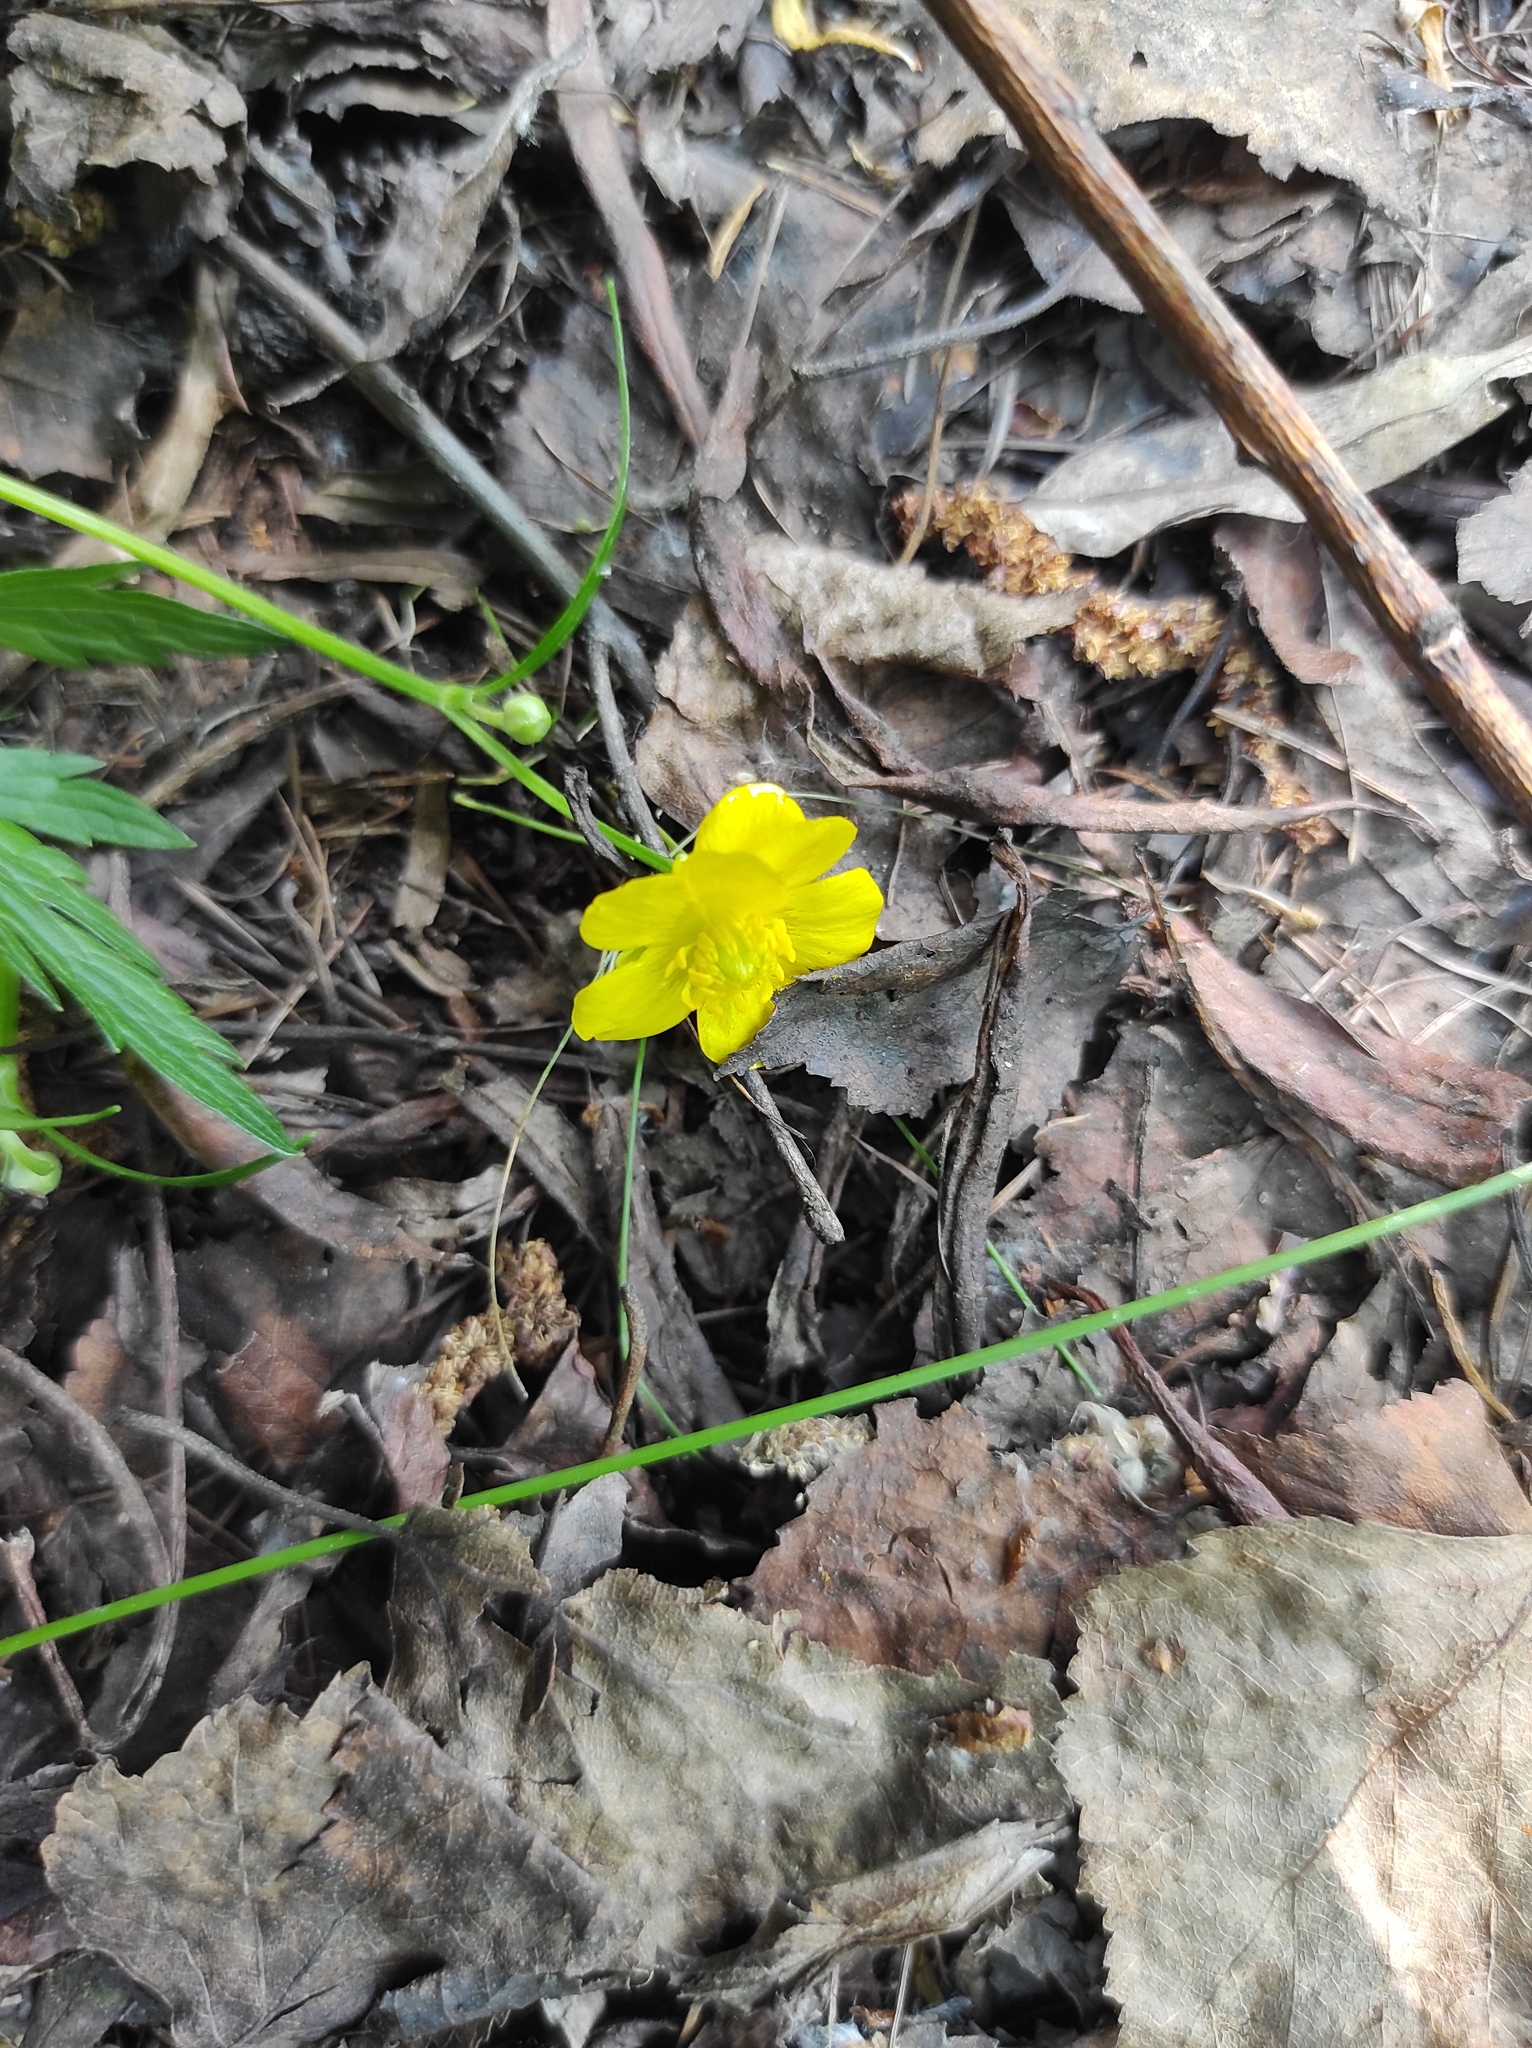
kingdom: Plantae
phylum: Tracheophyta
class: Magnoliopsida
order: Ranunculales
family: Ranunculaceae
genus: Ranunculus
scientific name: Ranunculus repens
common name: Creeping buttercup
